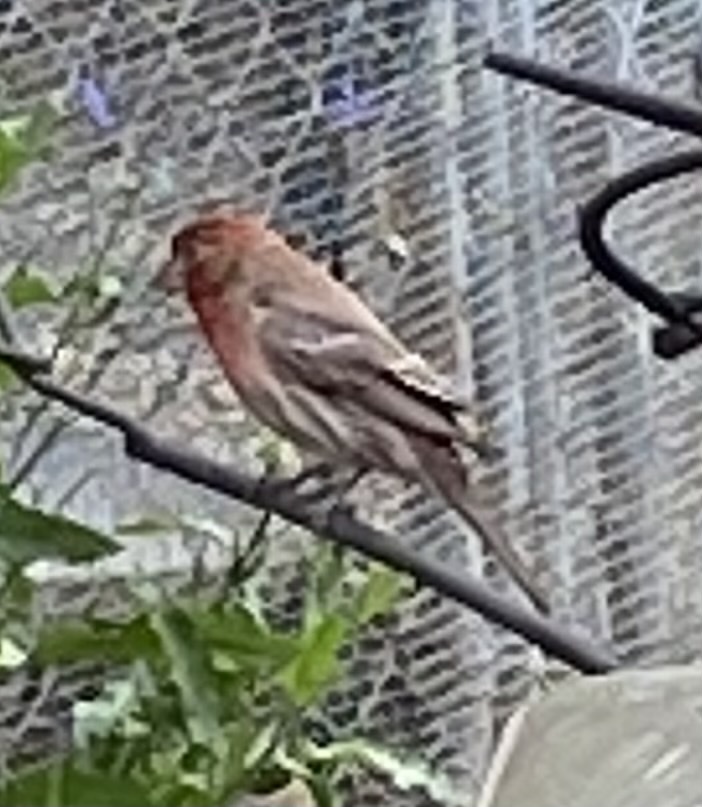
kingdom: Animalia
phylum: Chordata
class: Aves
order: Passeriformes
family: Fringillidae
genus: Haemorhous
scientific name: Haemorhous mexicanus
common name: House finch
